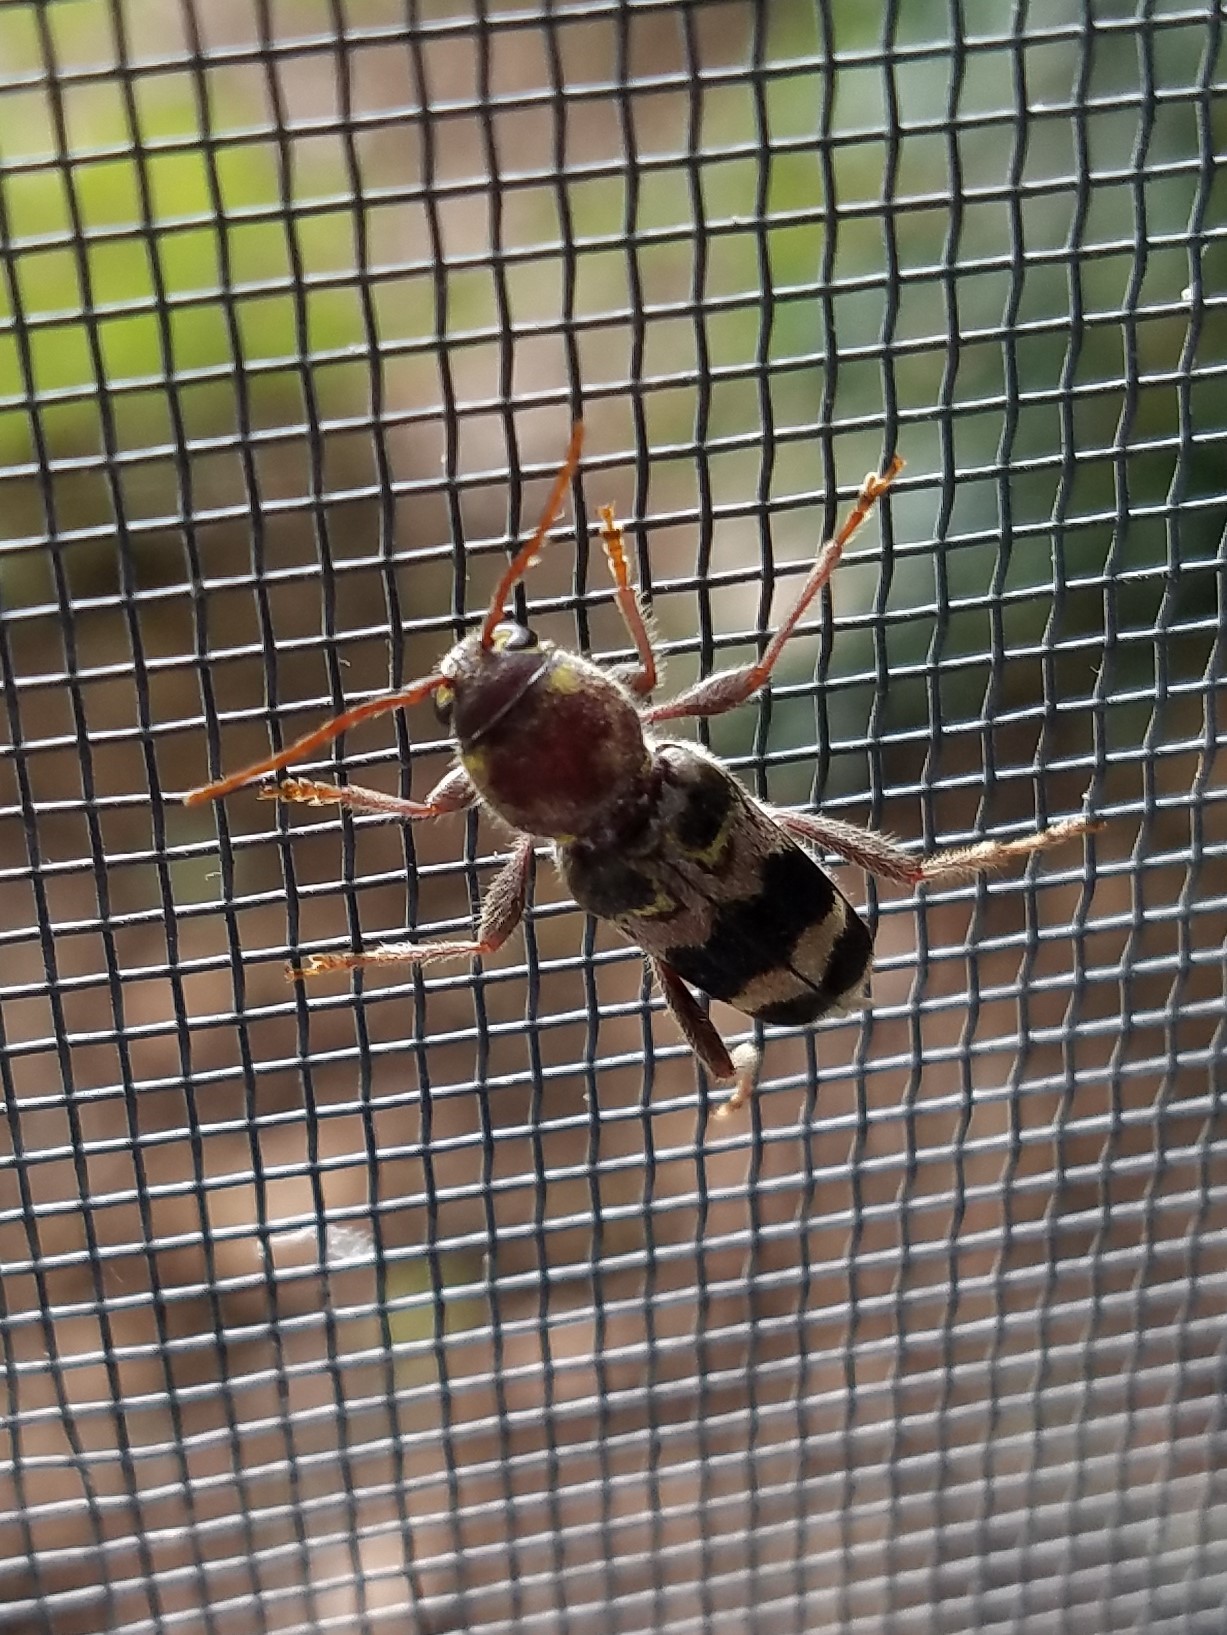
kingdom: Animalia
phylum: Arthropoda
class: Insecta
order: Coleoptera
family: Cerambycidae
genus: Xylotrechus
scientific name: Xylotrechus colonus
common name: Long-horned beetle
